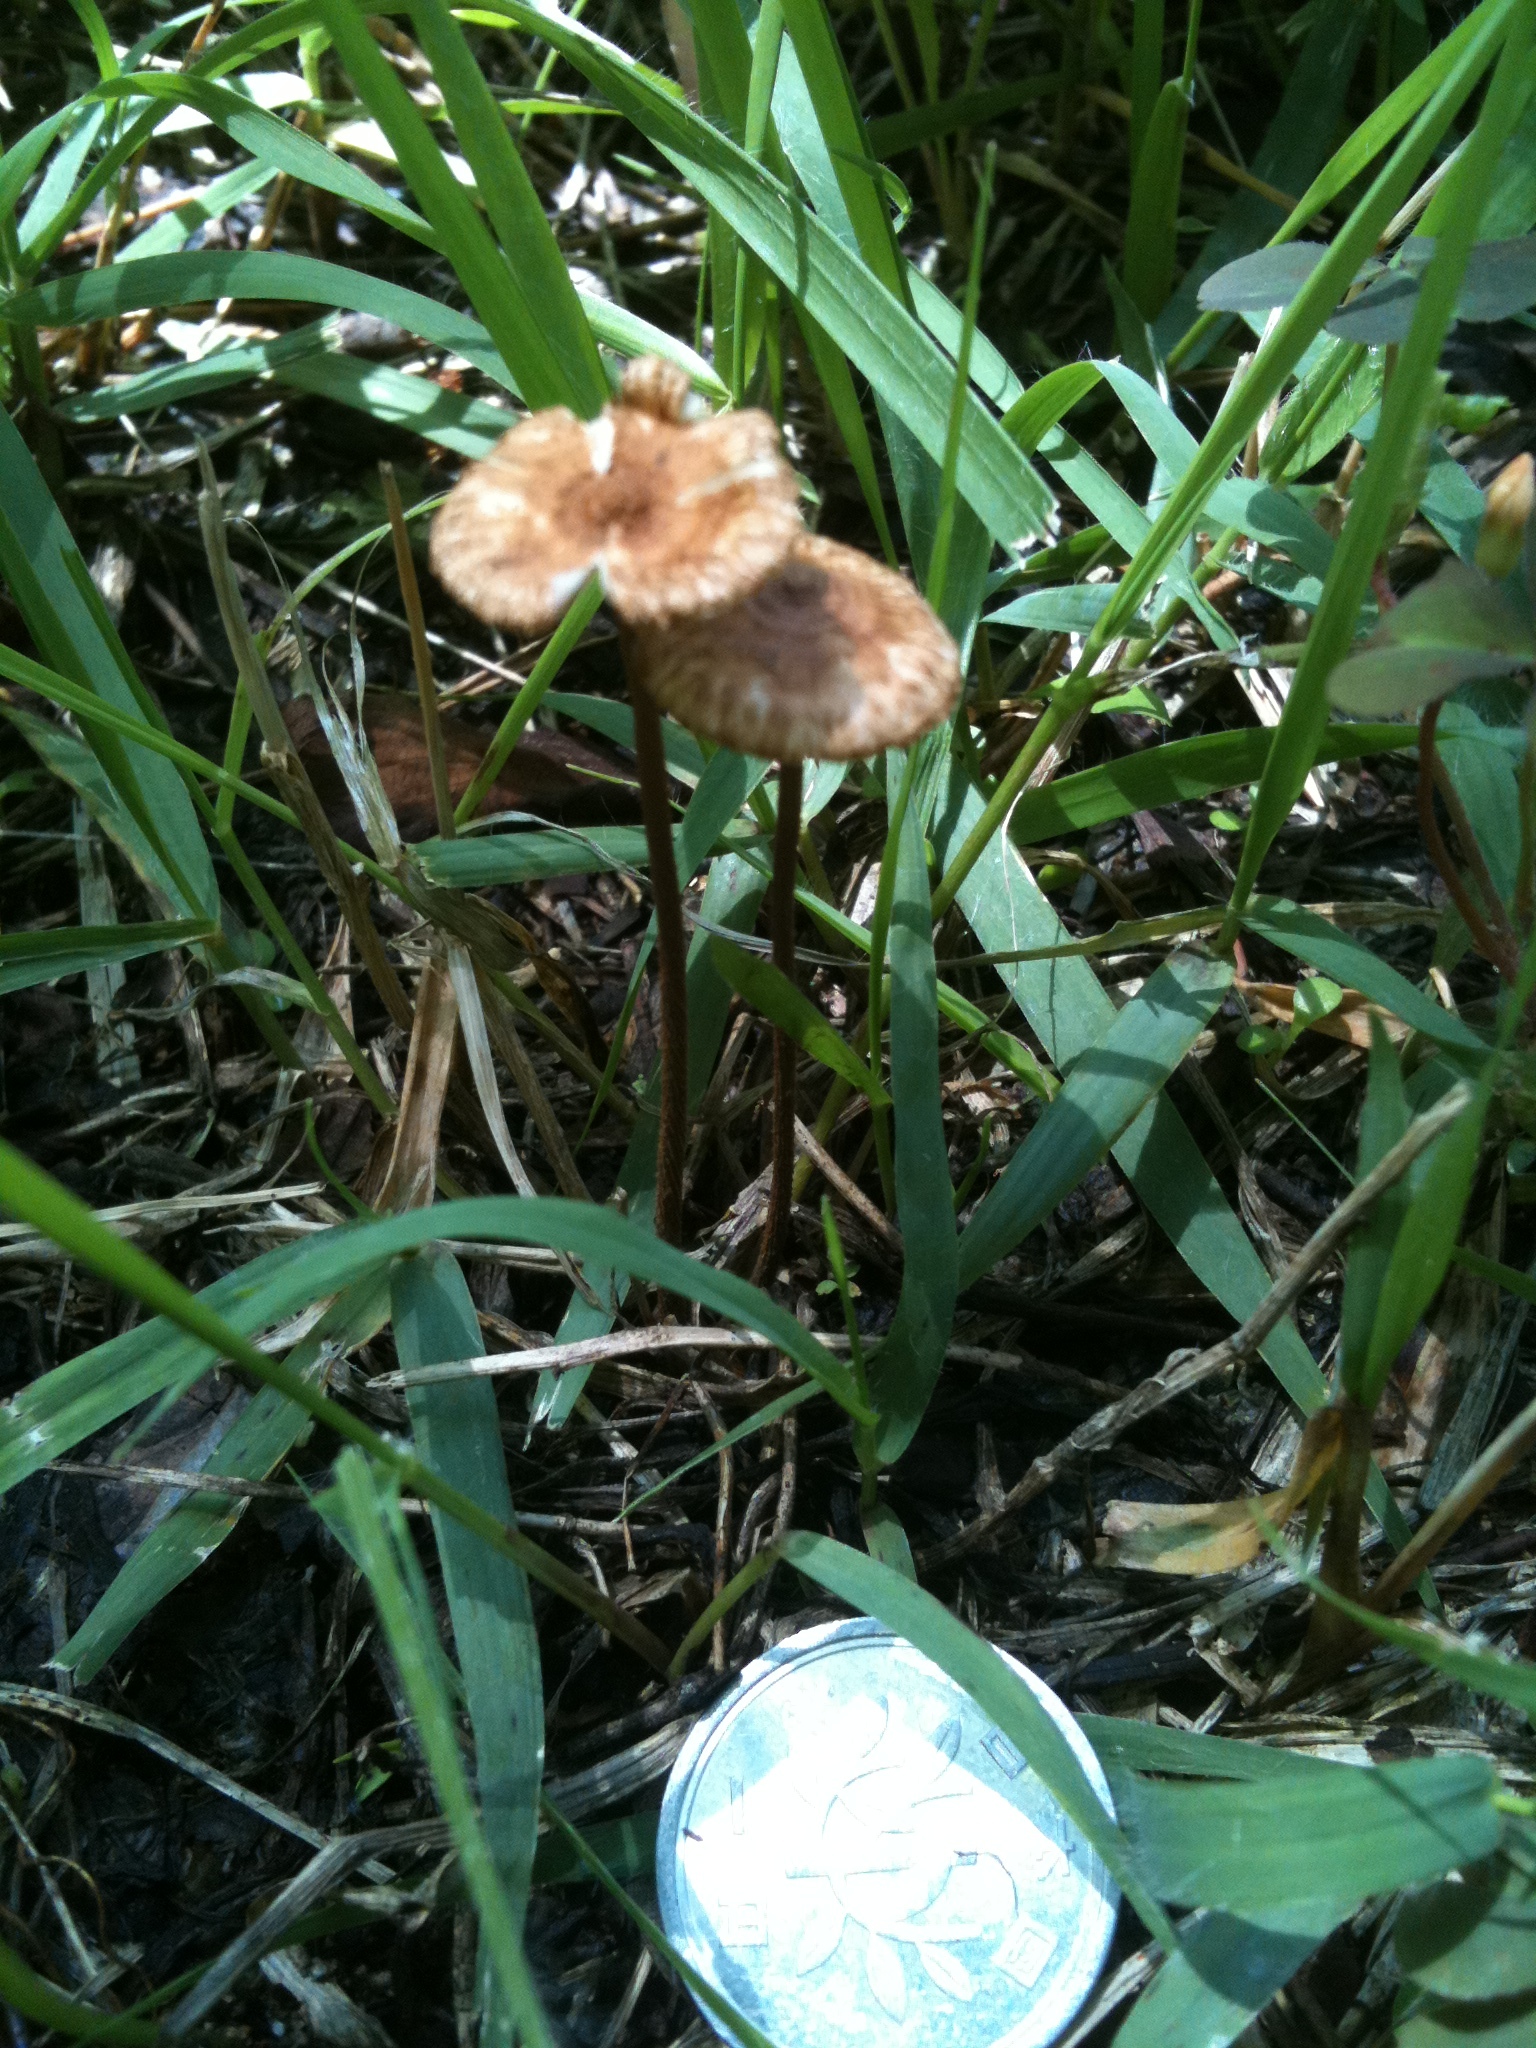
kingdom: Fungi
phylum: Basidiomycota
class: Agaricomycetes
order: Agaricales
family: Marasmiaceae
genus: Crinipellis
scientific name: Crinipellis scabella
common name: Hairy parachute
